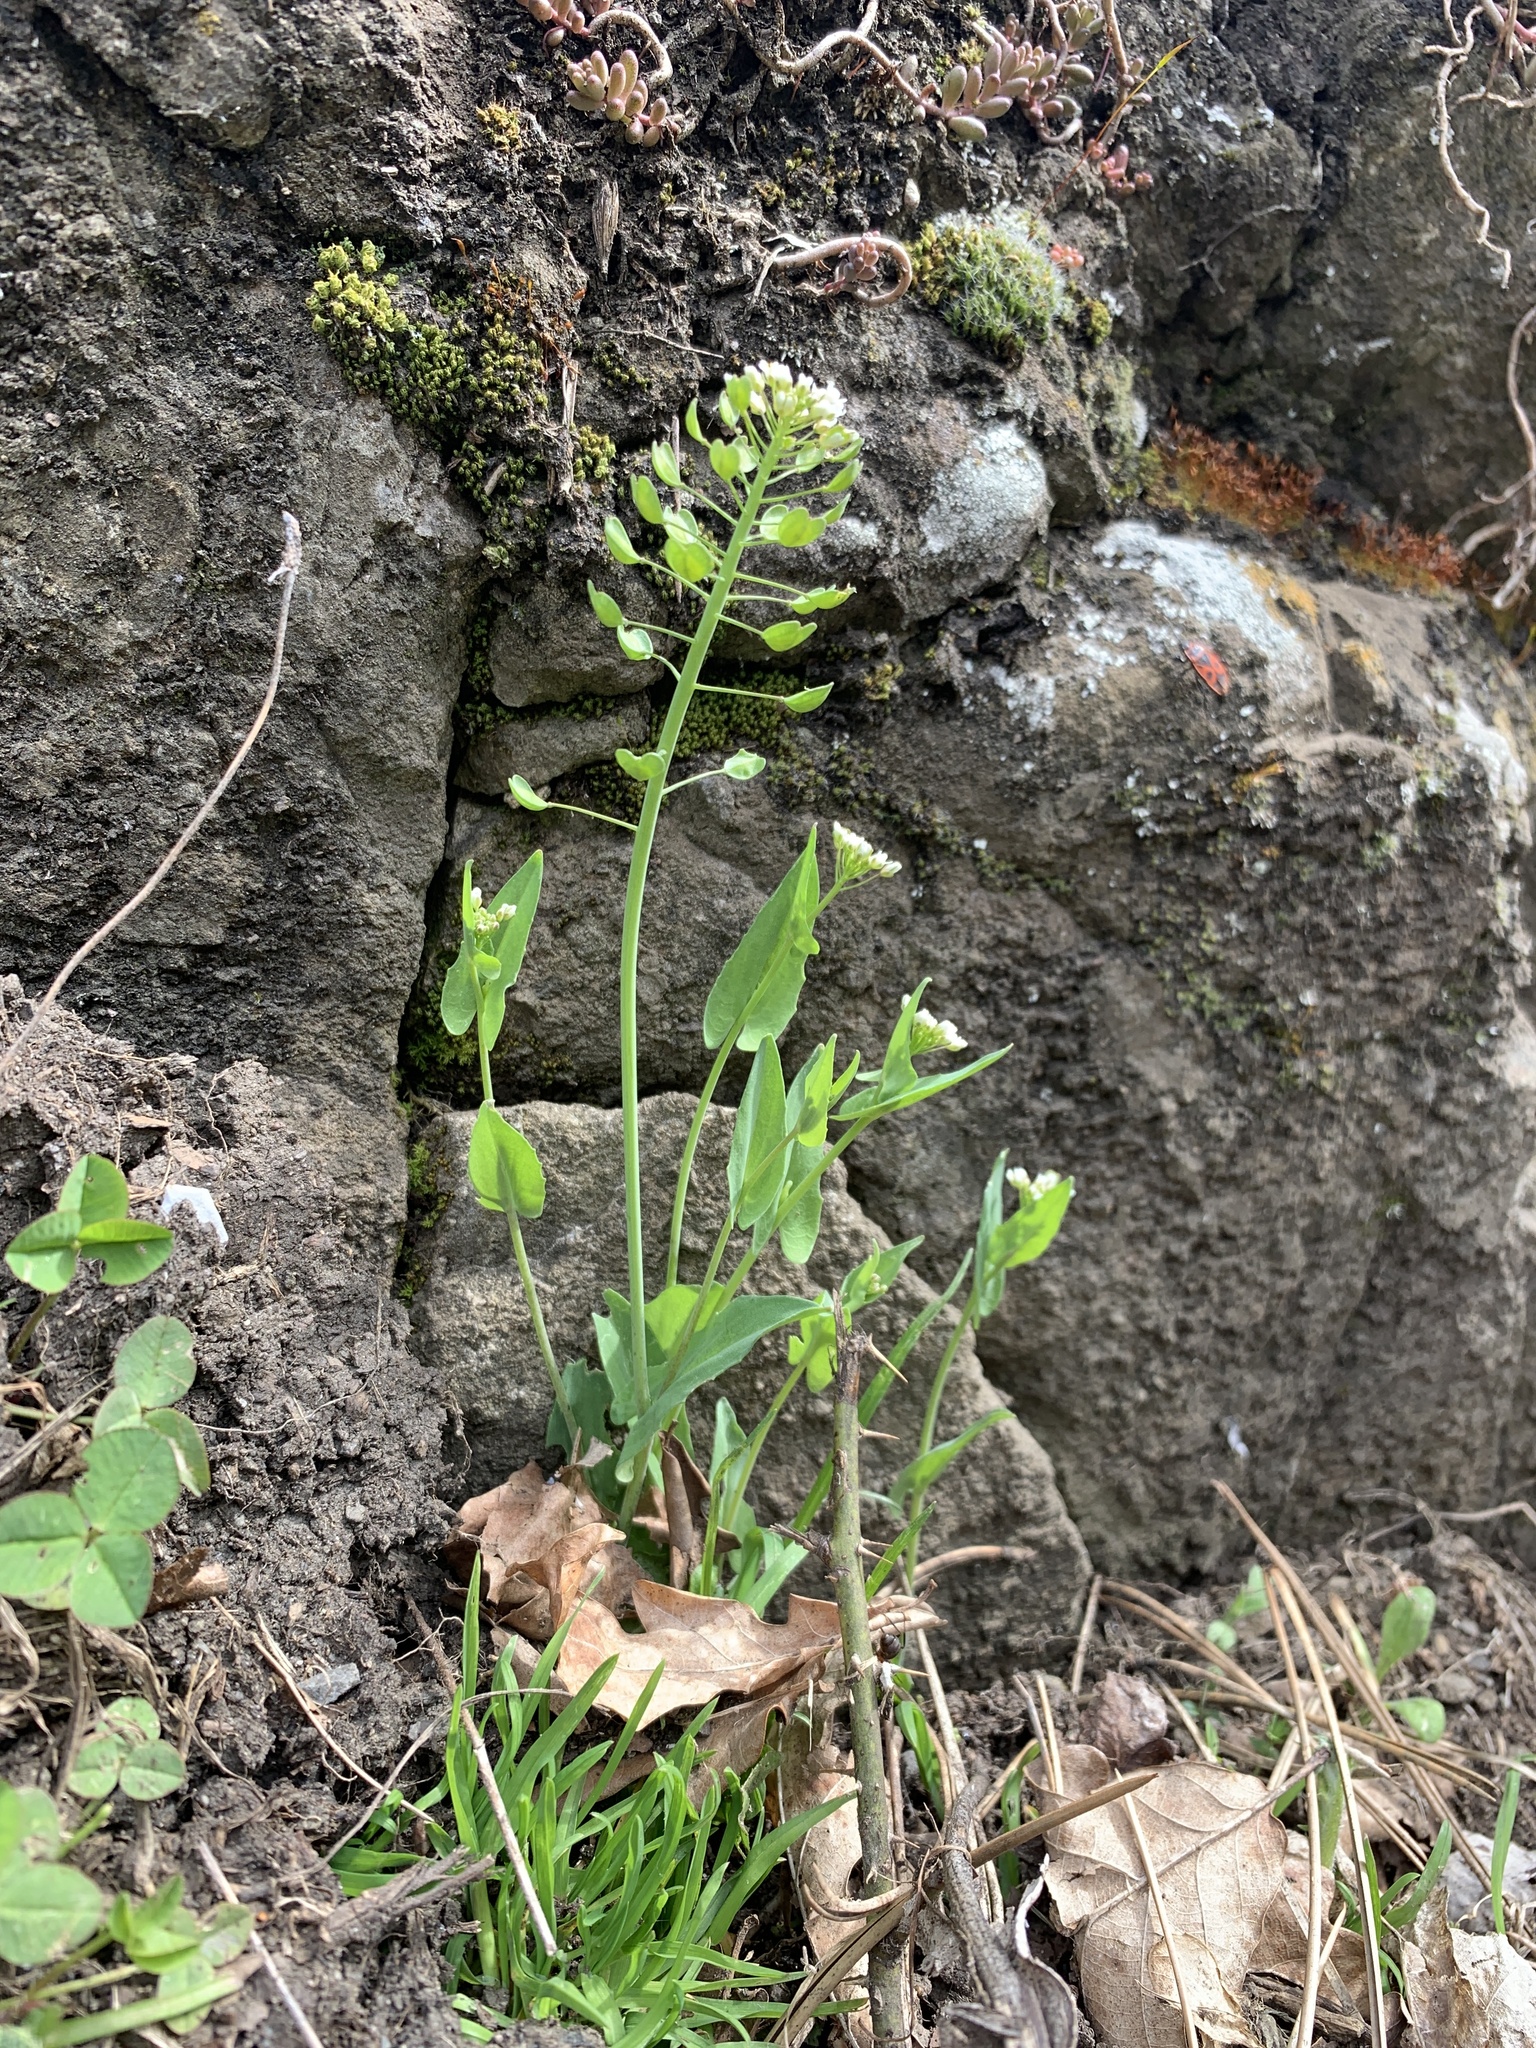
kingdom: Plantae
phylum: Tracheophyta
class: Magnoliopsida
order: Brassicales
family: Brassicaceae
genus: Noccaea
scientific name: Noccaea perfoliata
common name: Perfoliate pennycress
